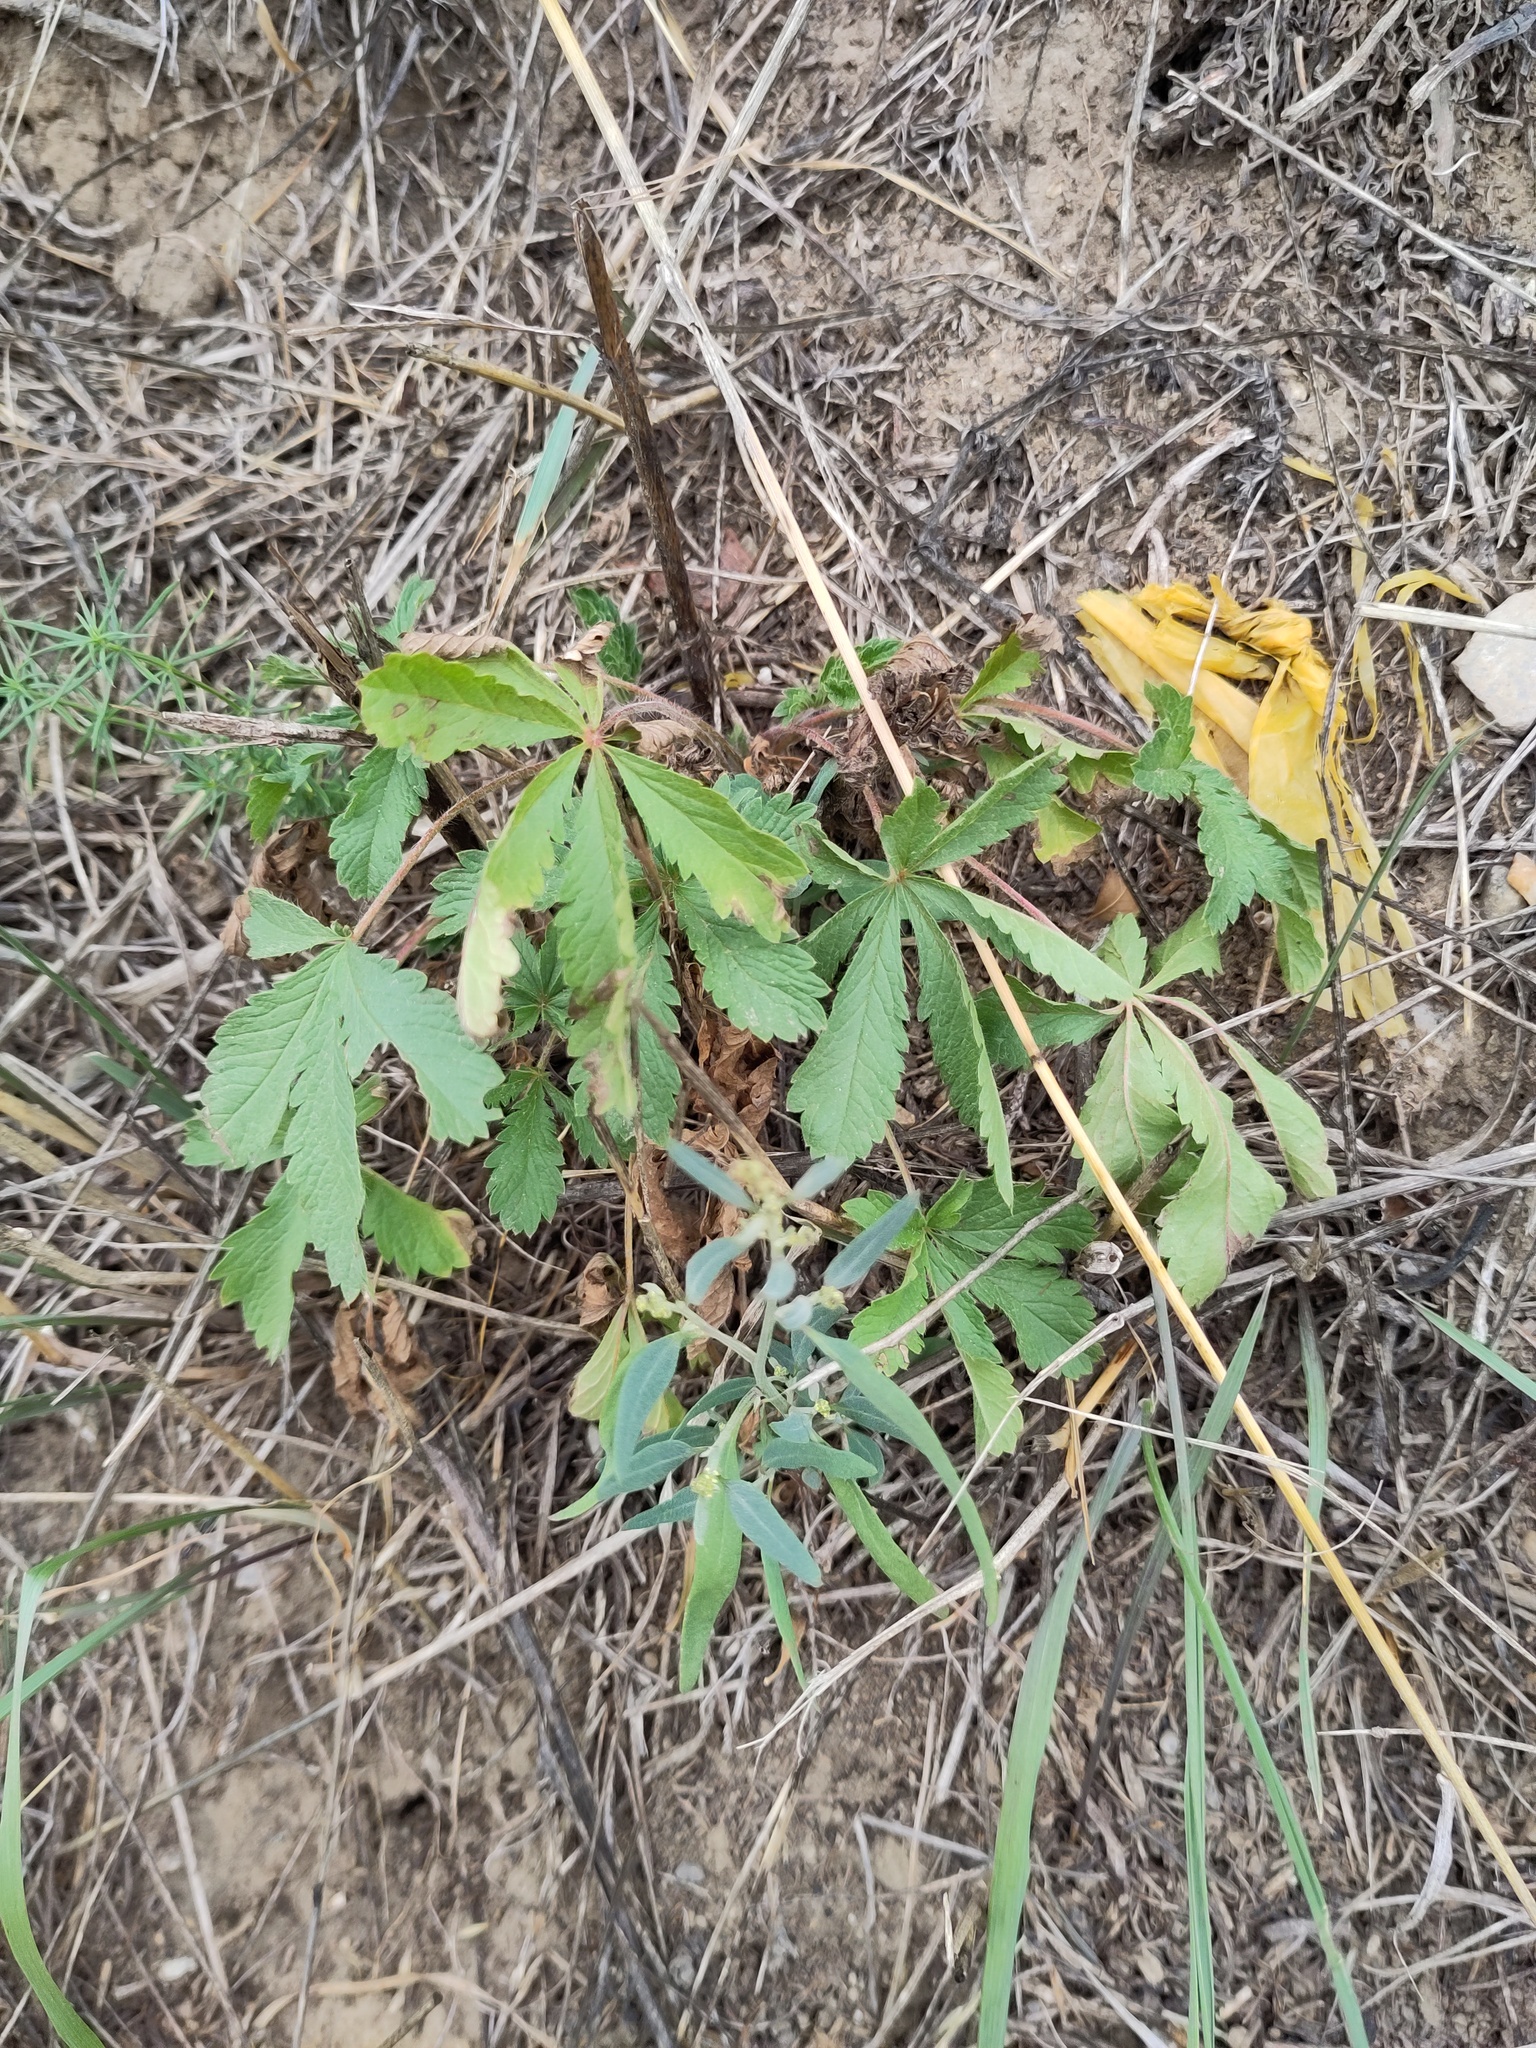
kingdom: Plantae
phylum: Tracheophyta
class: Magnoliopsida
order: Rosales
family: Rosaceae
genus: Potentilla
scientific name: Potentilla recta
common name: Sulphur cinquefoil
